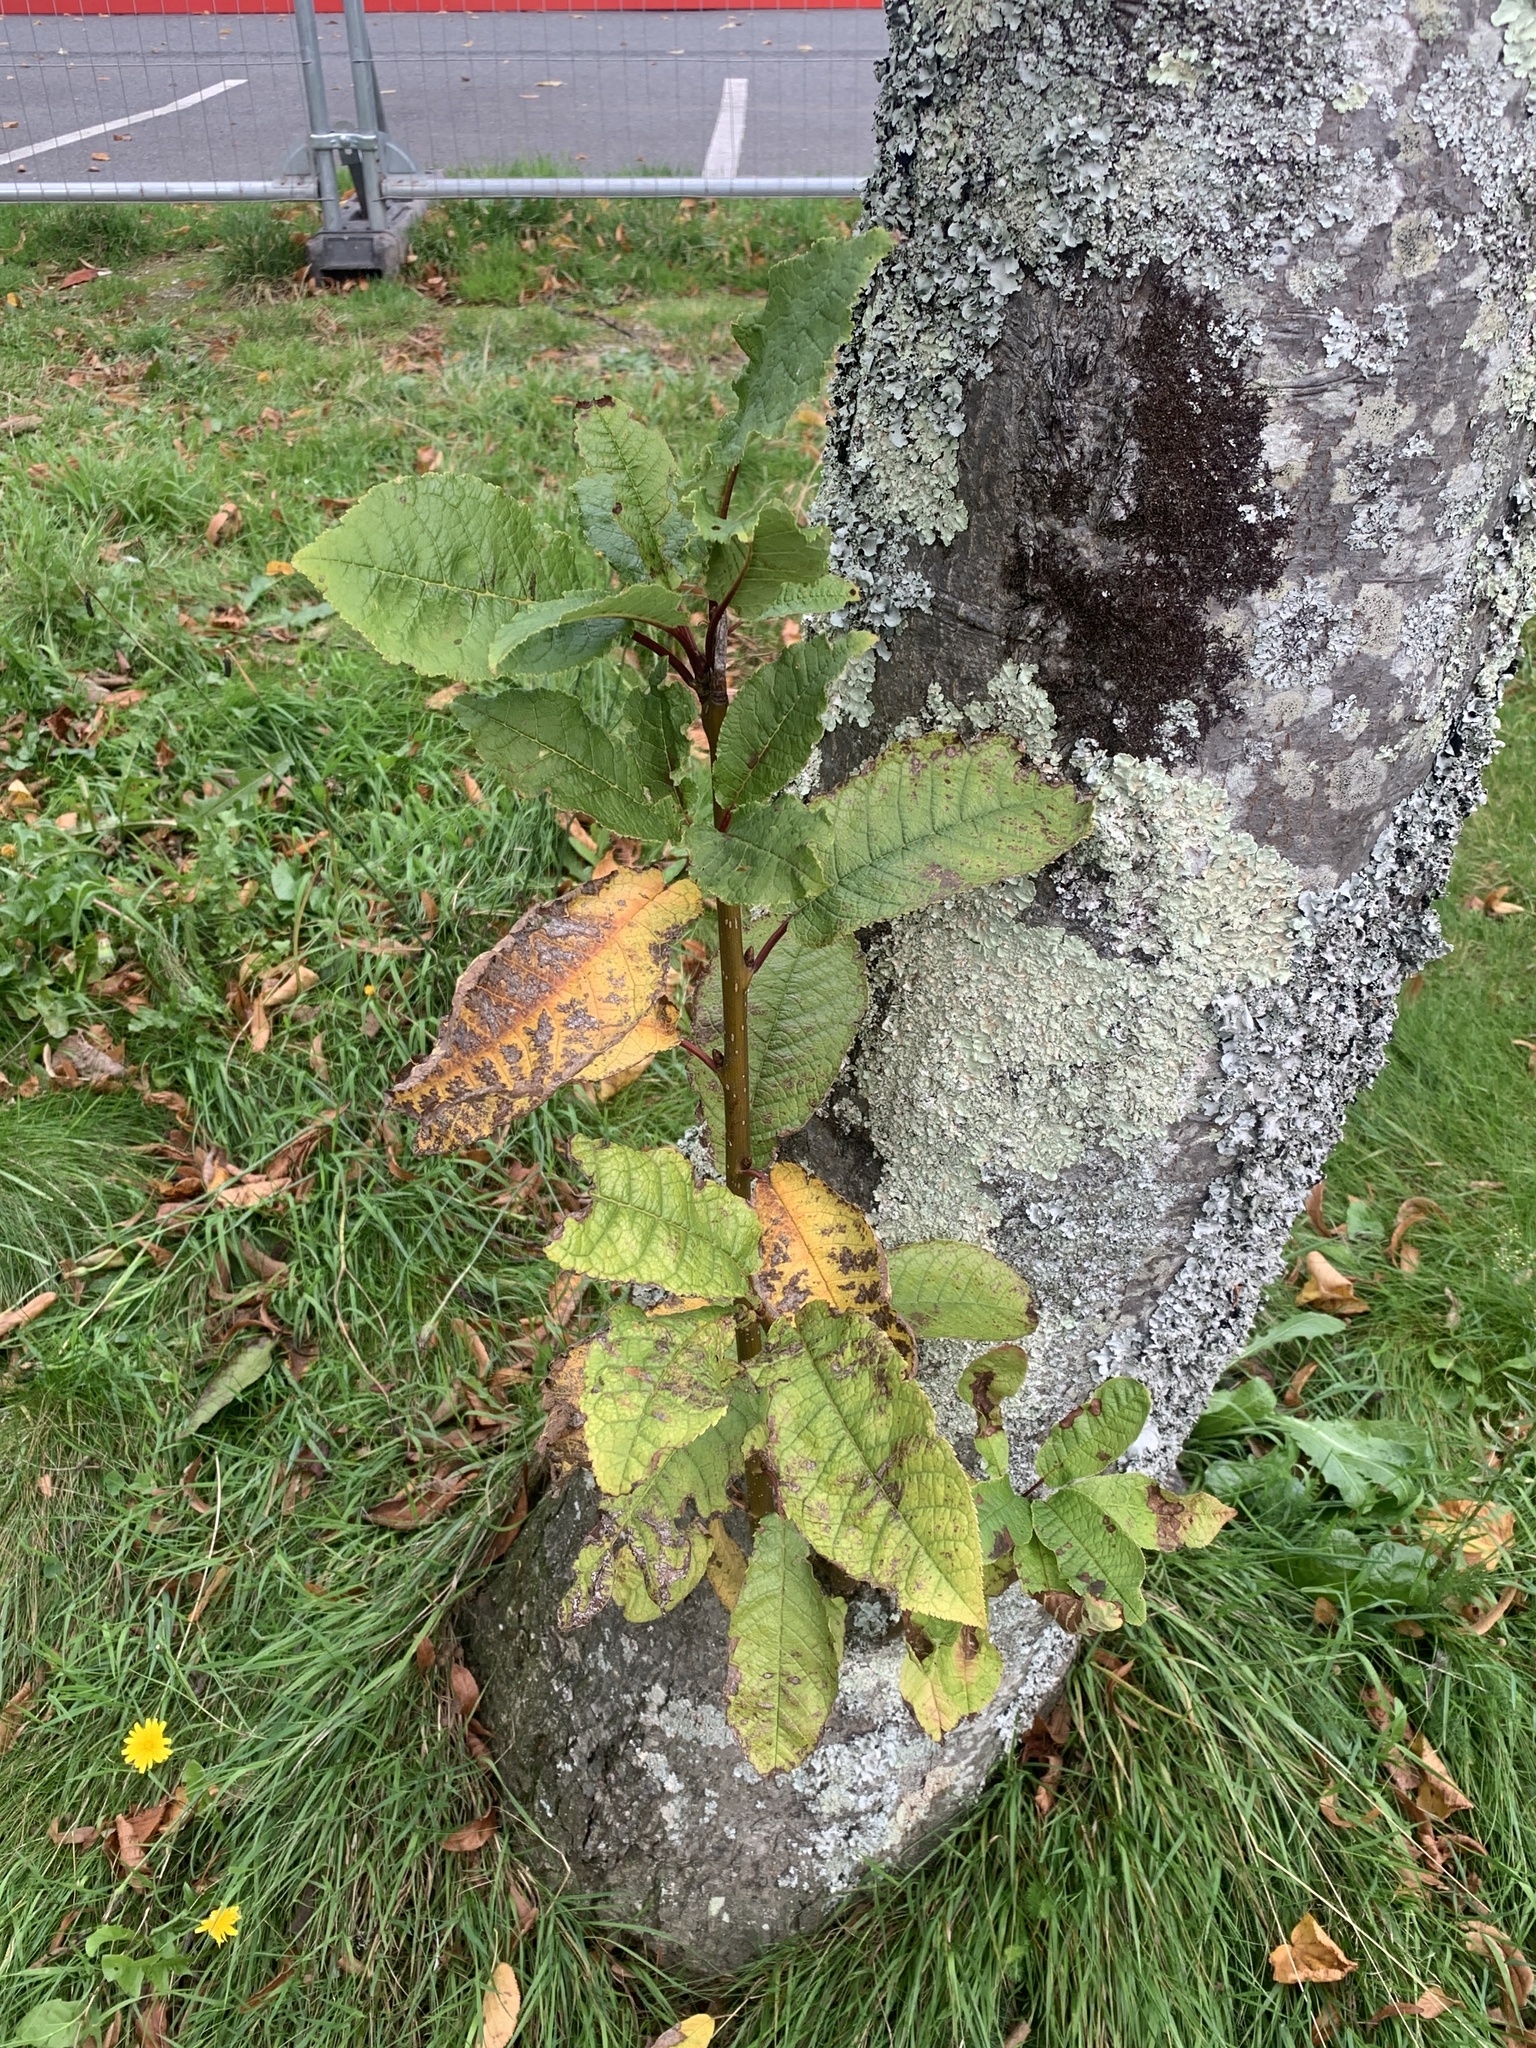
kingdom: Plantae
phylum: Tracheophyta
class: Magnoliopsida
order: Rosales
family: Rosaceae
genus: Prunus
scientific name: Prunus padus
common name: Bird cherry
